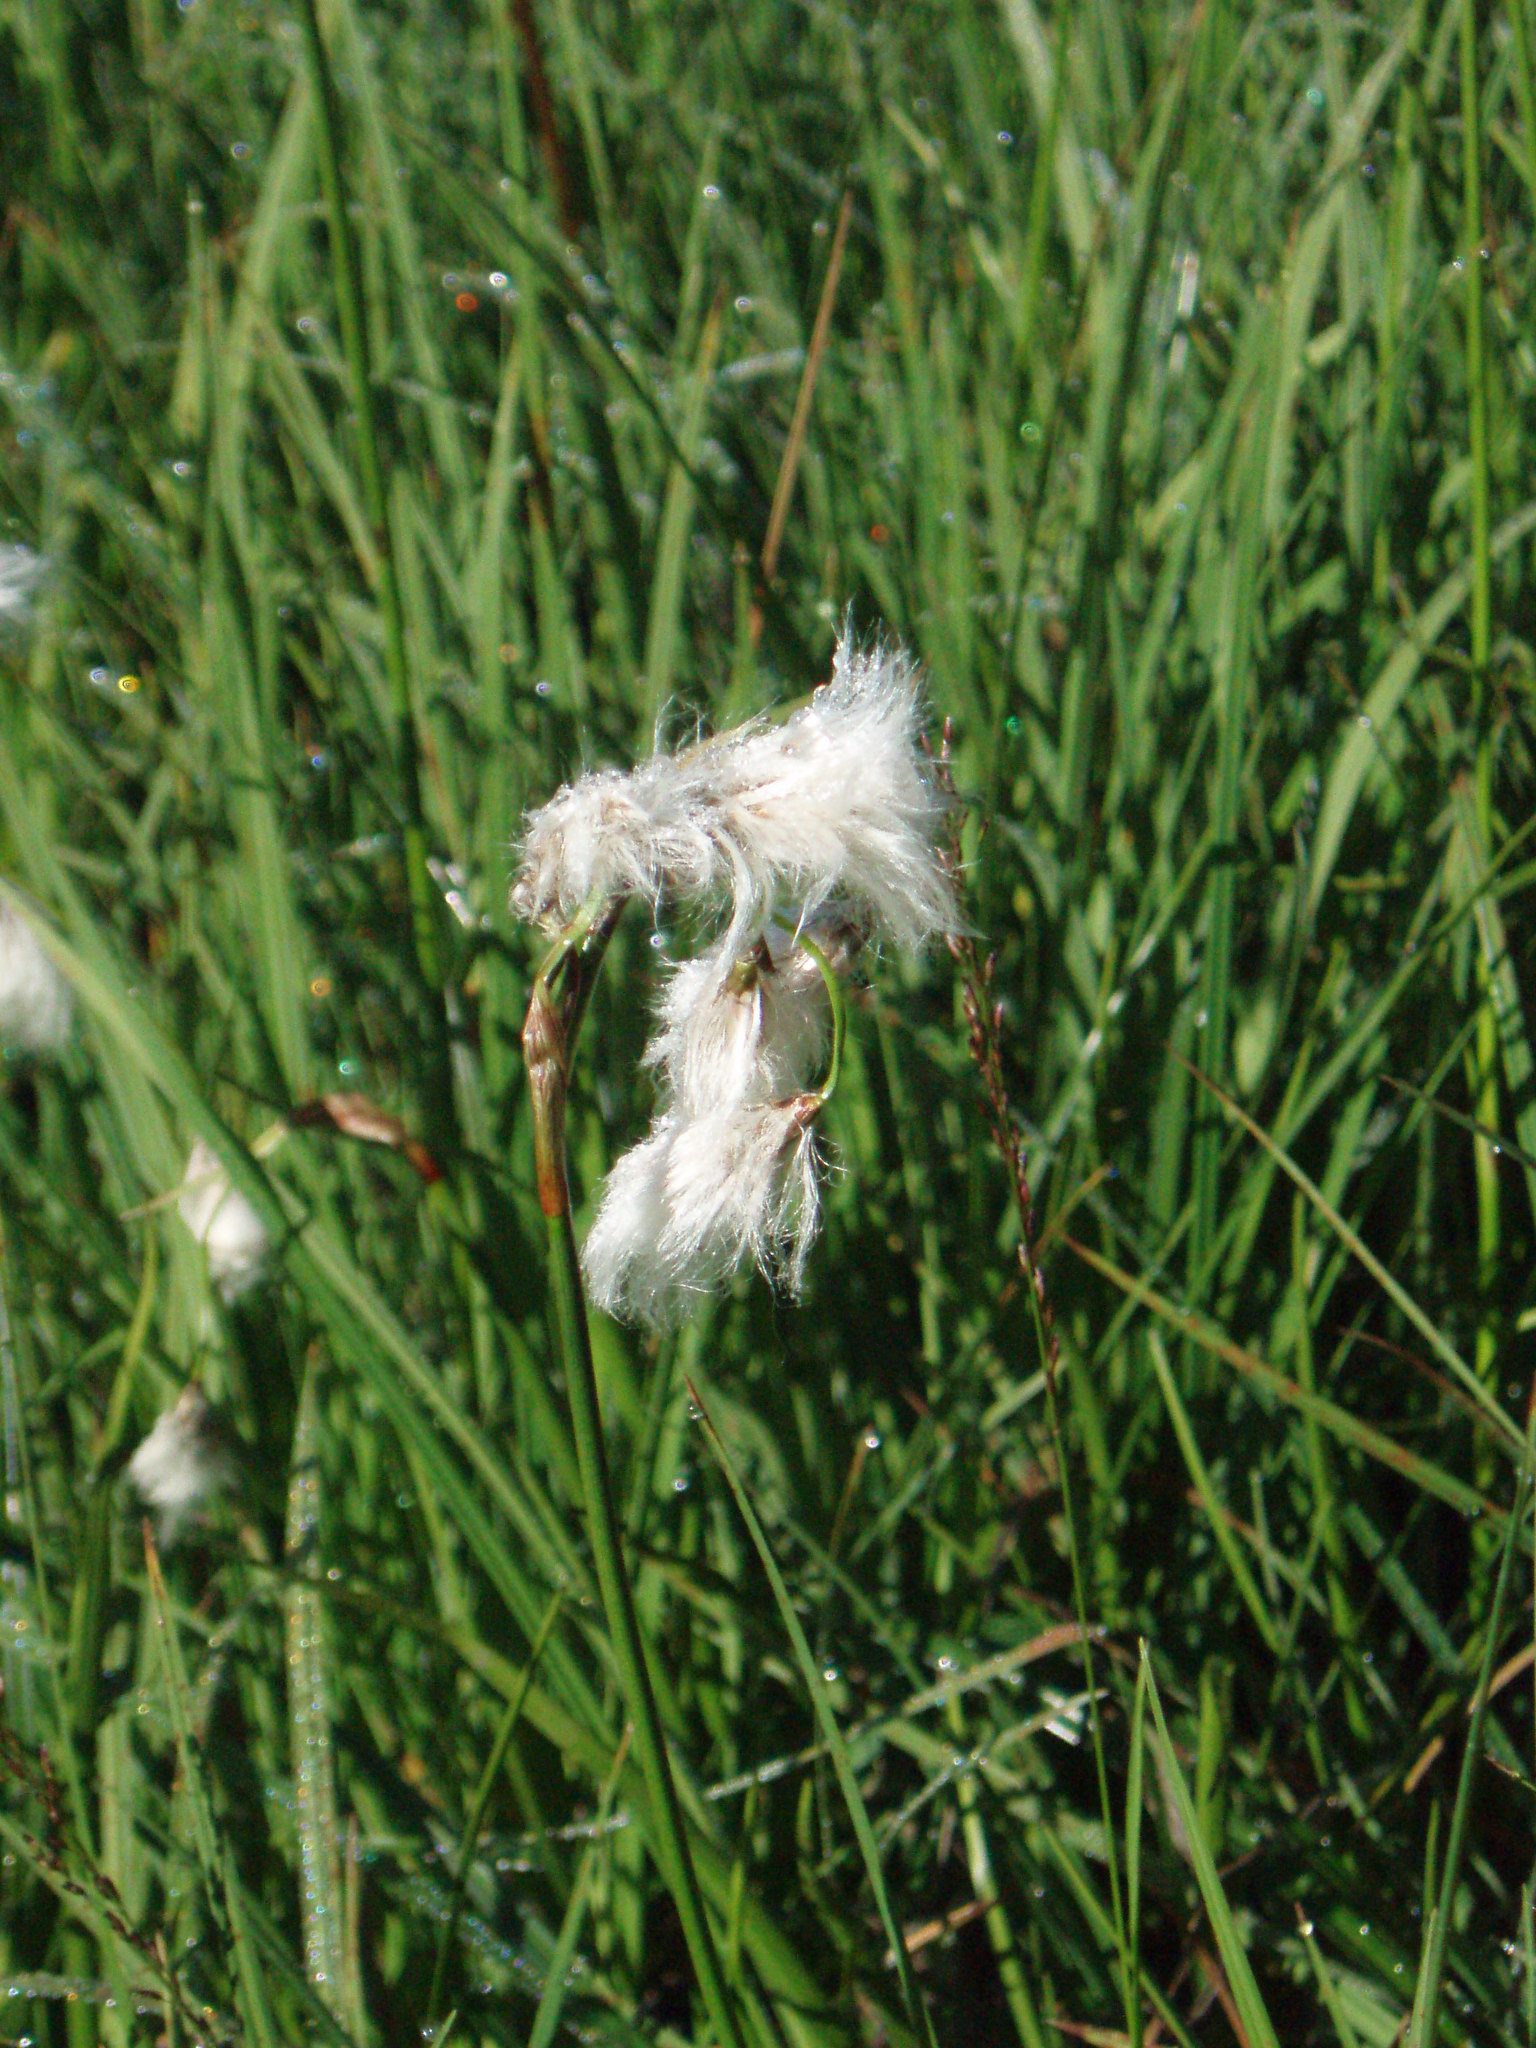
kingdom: Plantae
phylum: Tracheophyta
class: Liliopsida
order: Poales
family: Cyperaceae
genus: Eriophorum
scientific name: Eriophorum triste
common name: Tall cottongrass
